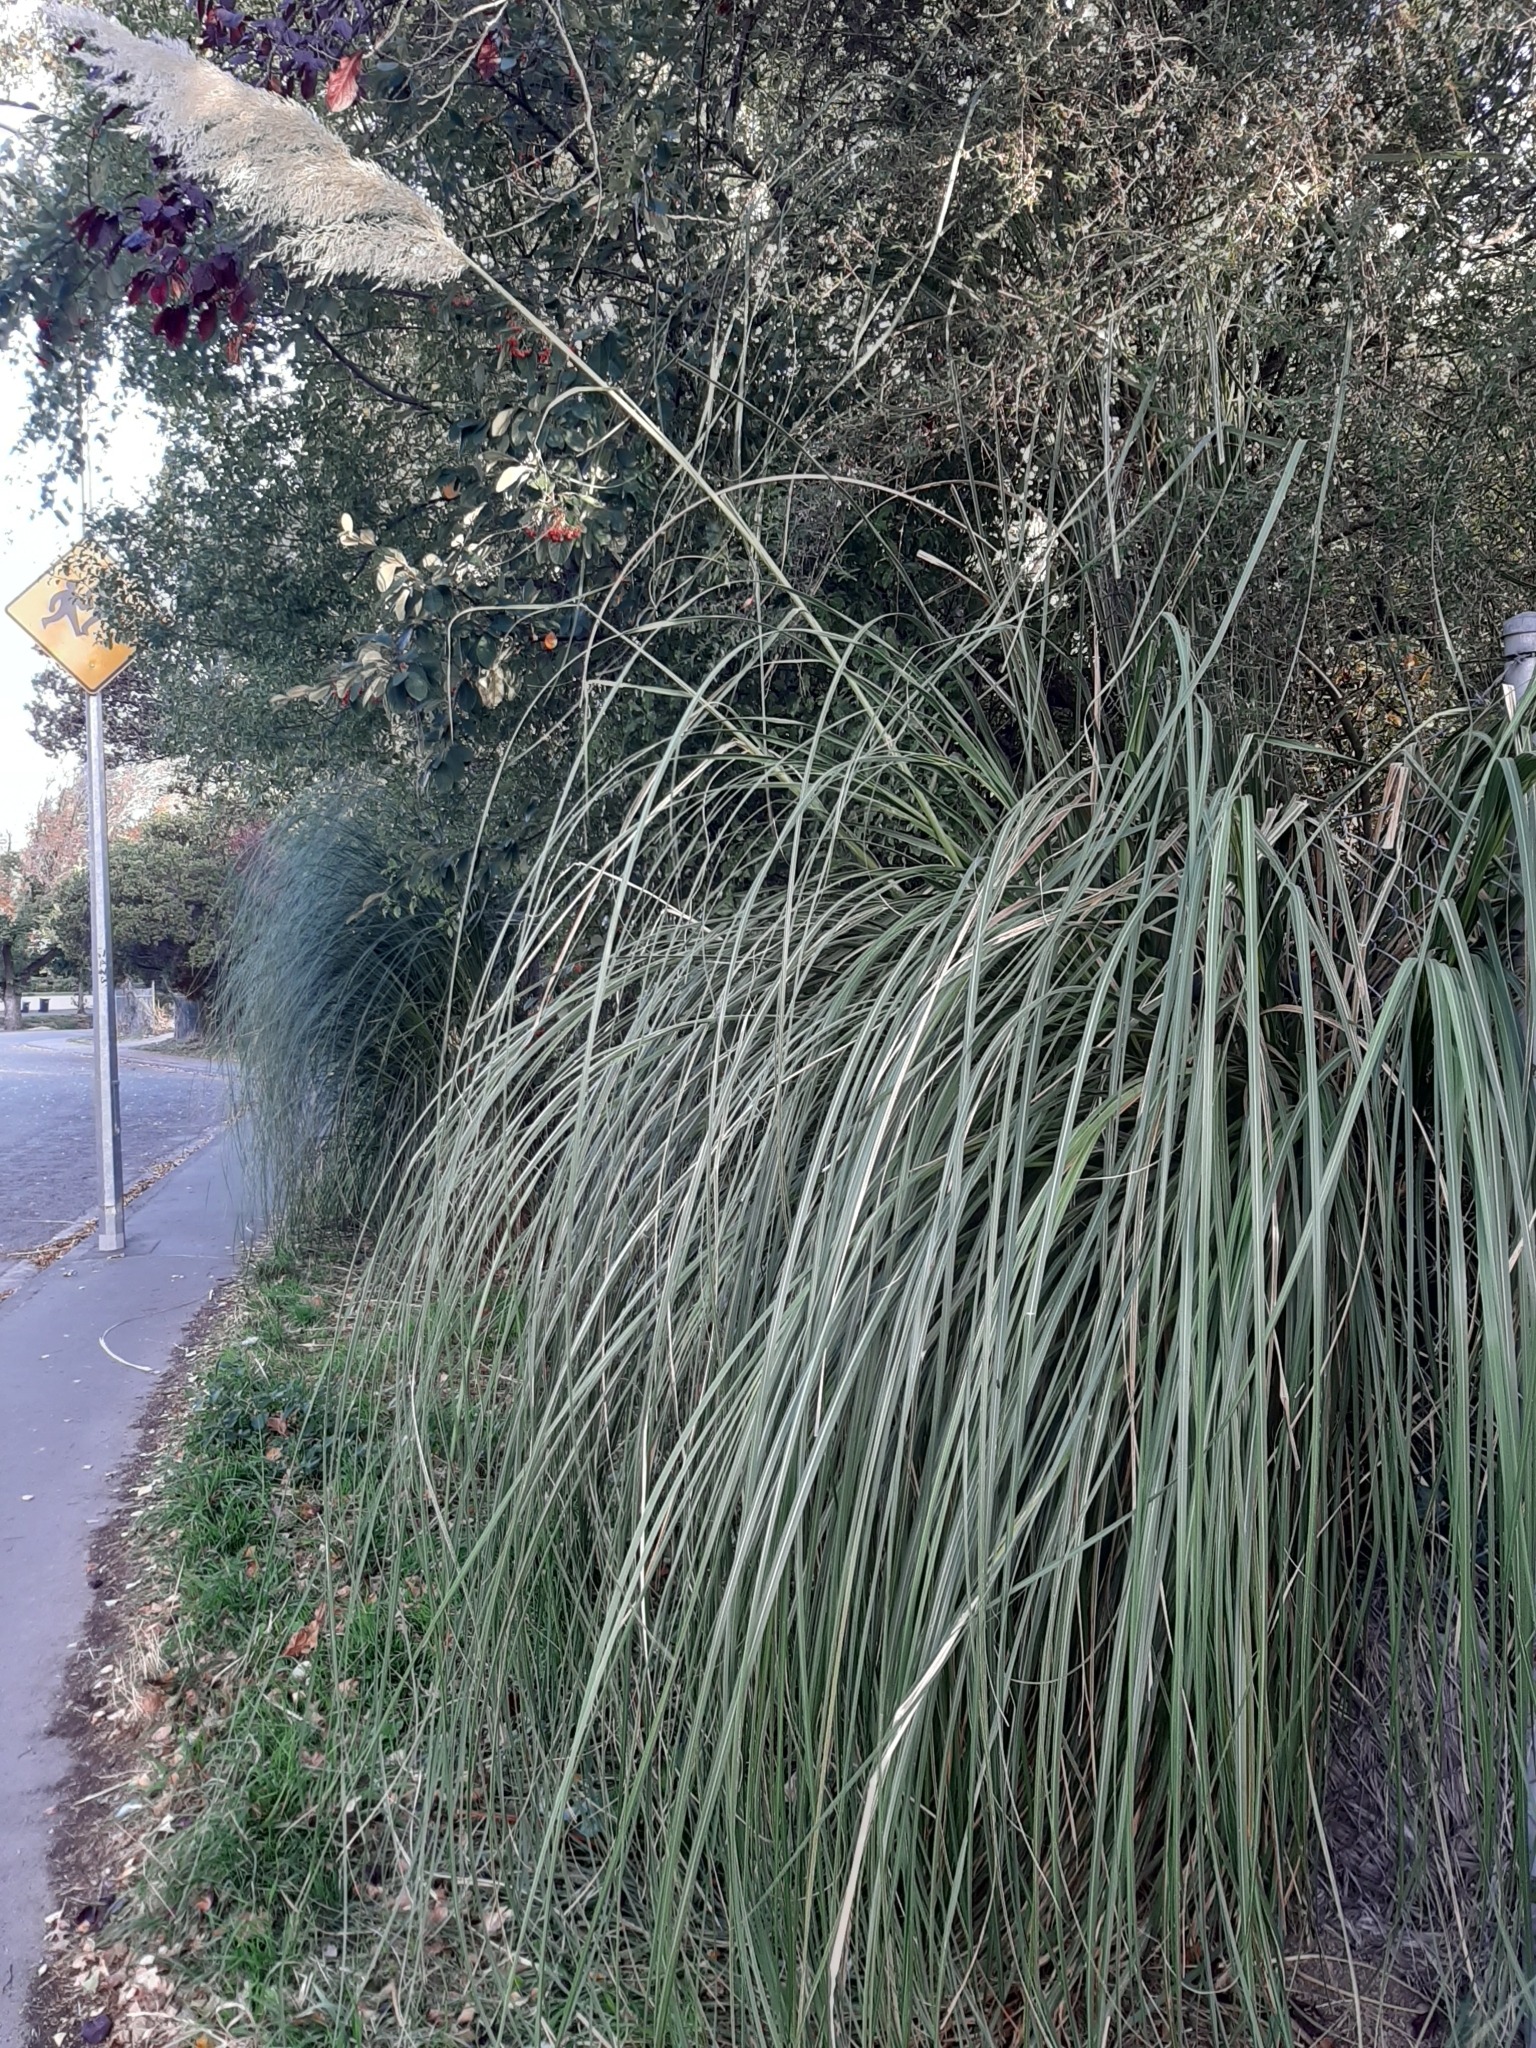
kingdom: Plantae
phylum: Tracheophyta
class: Liliopsida
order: Poales
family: Poaceae
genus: Cortaderia
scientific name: Cortaderia selloana
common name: Uruguayan pampas grass
